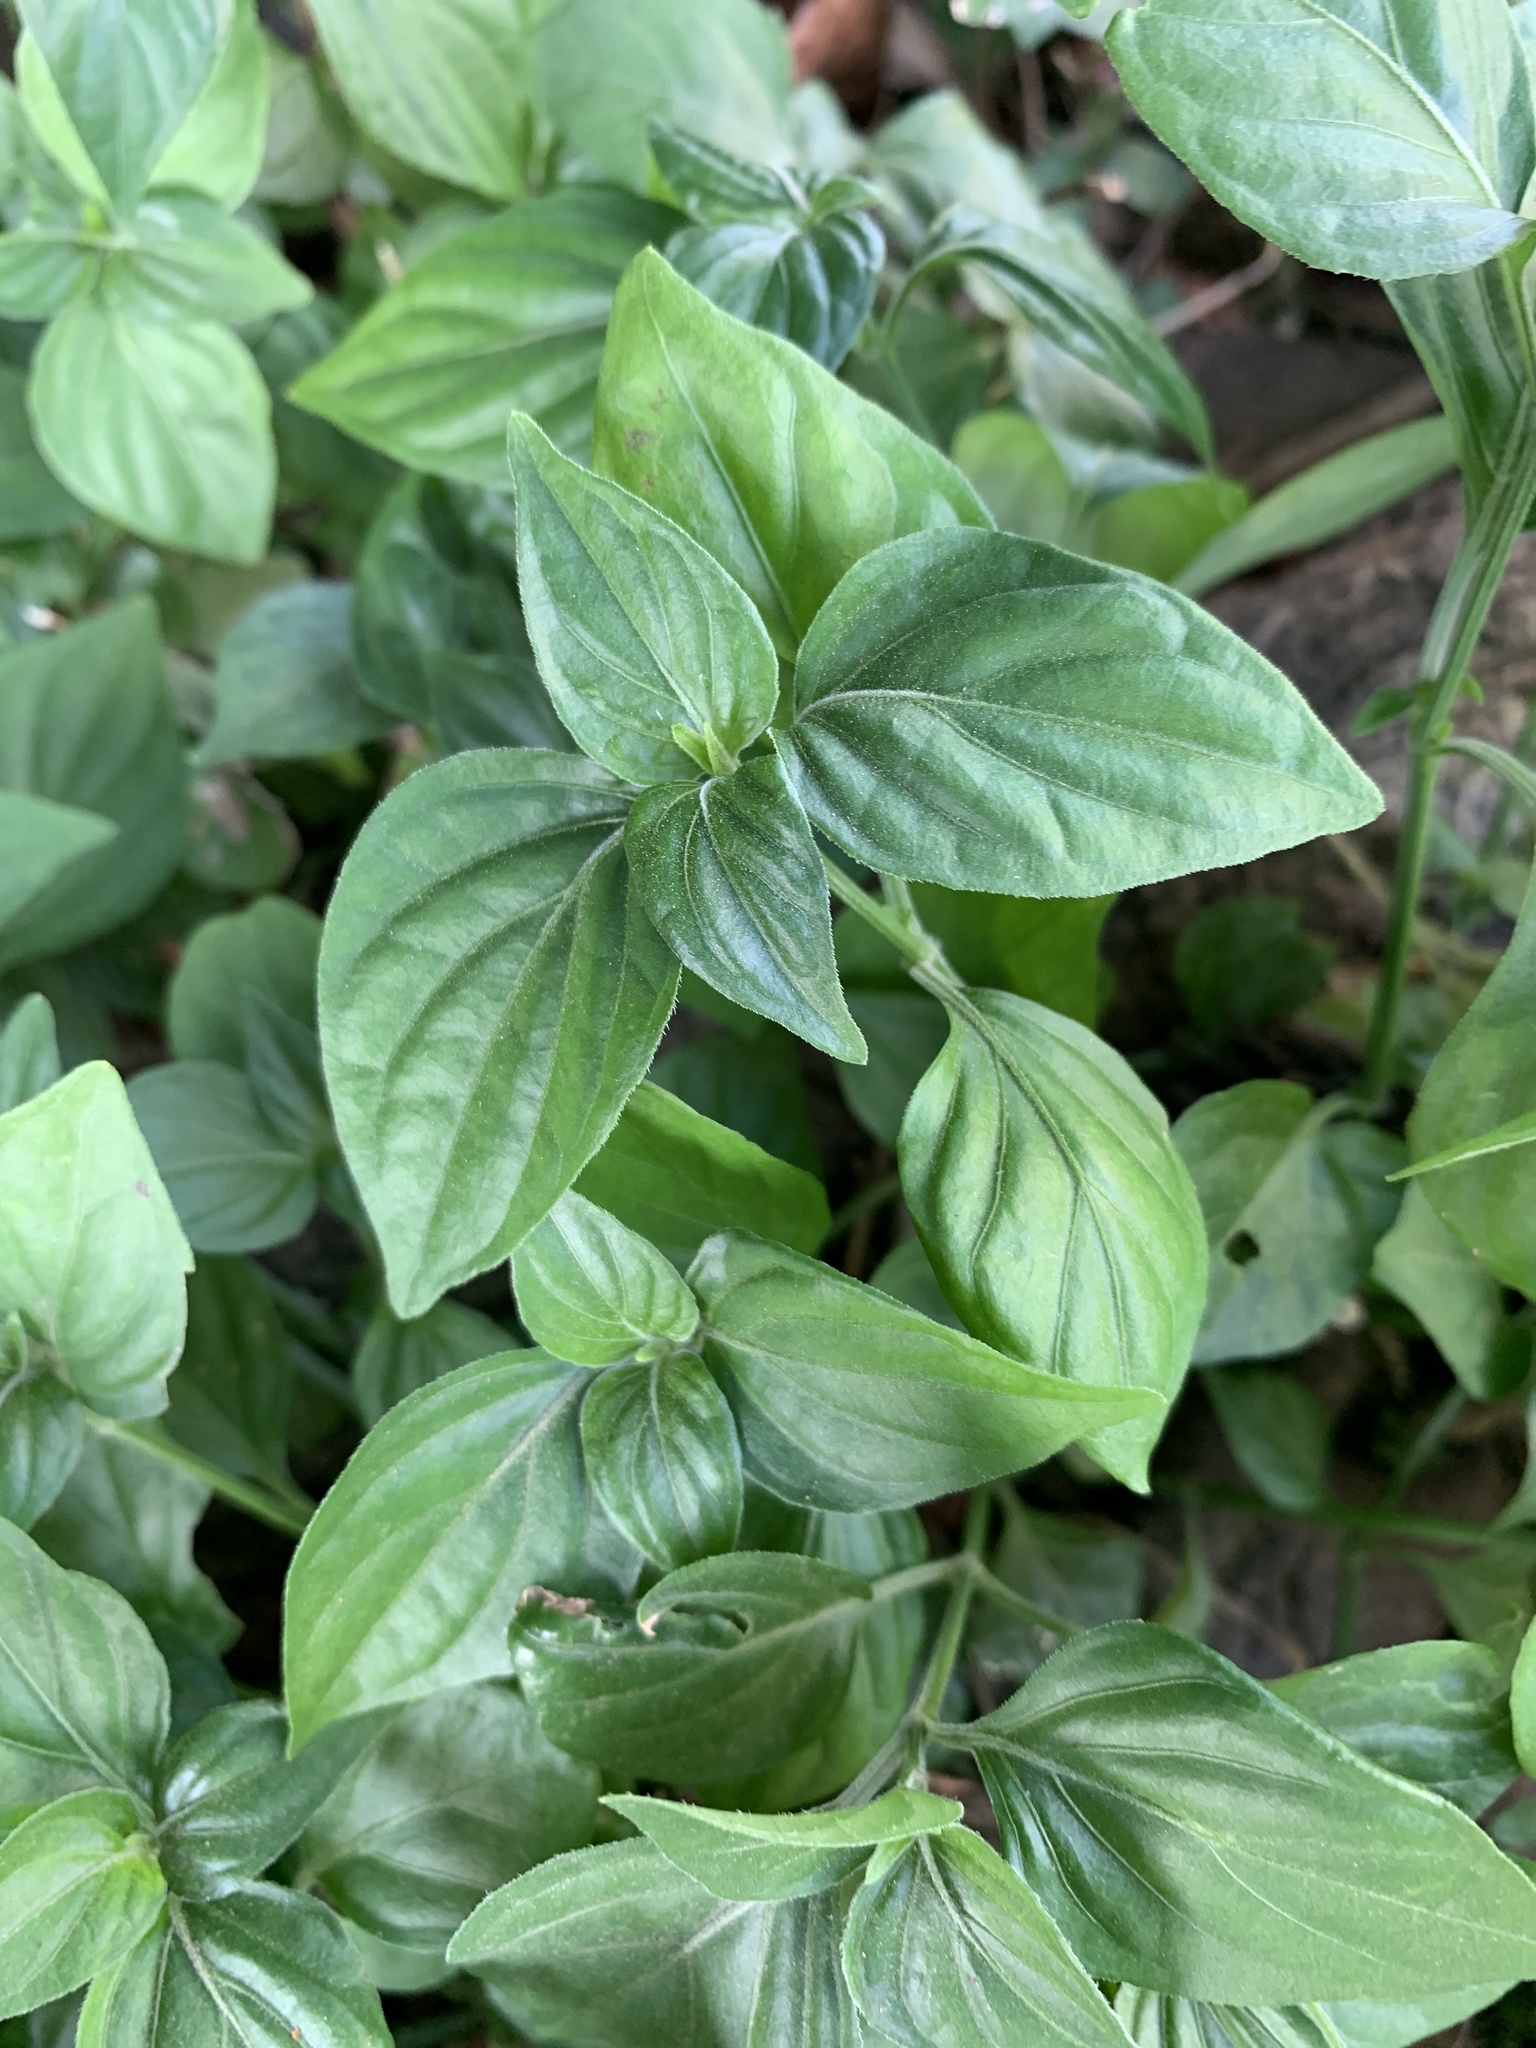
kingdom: Plantae
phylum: Tracheophyta
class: Magnoliopsida
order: Lamiales
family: Acanthaceae
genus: Dicliptera
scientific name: Dicliptera chinensis
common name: Chinese foldwing
